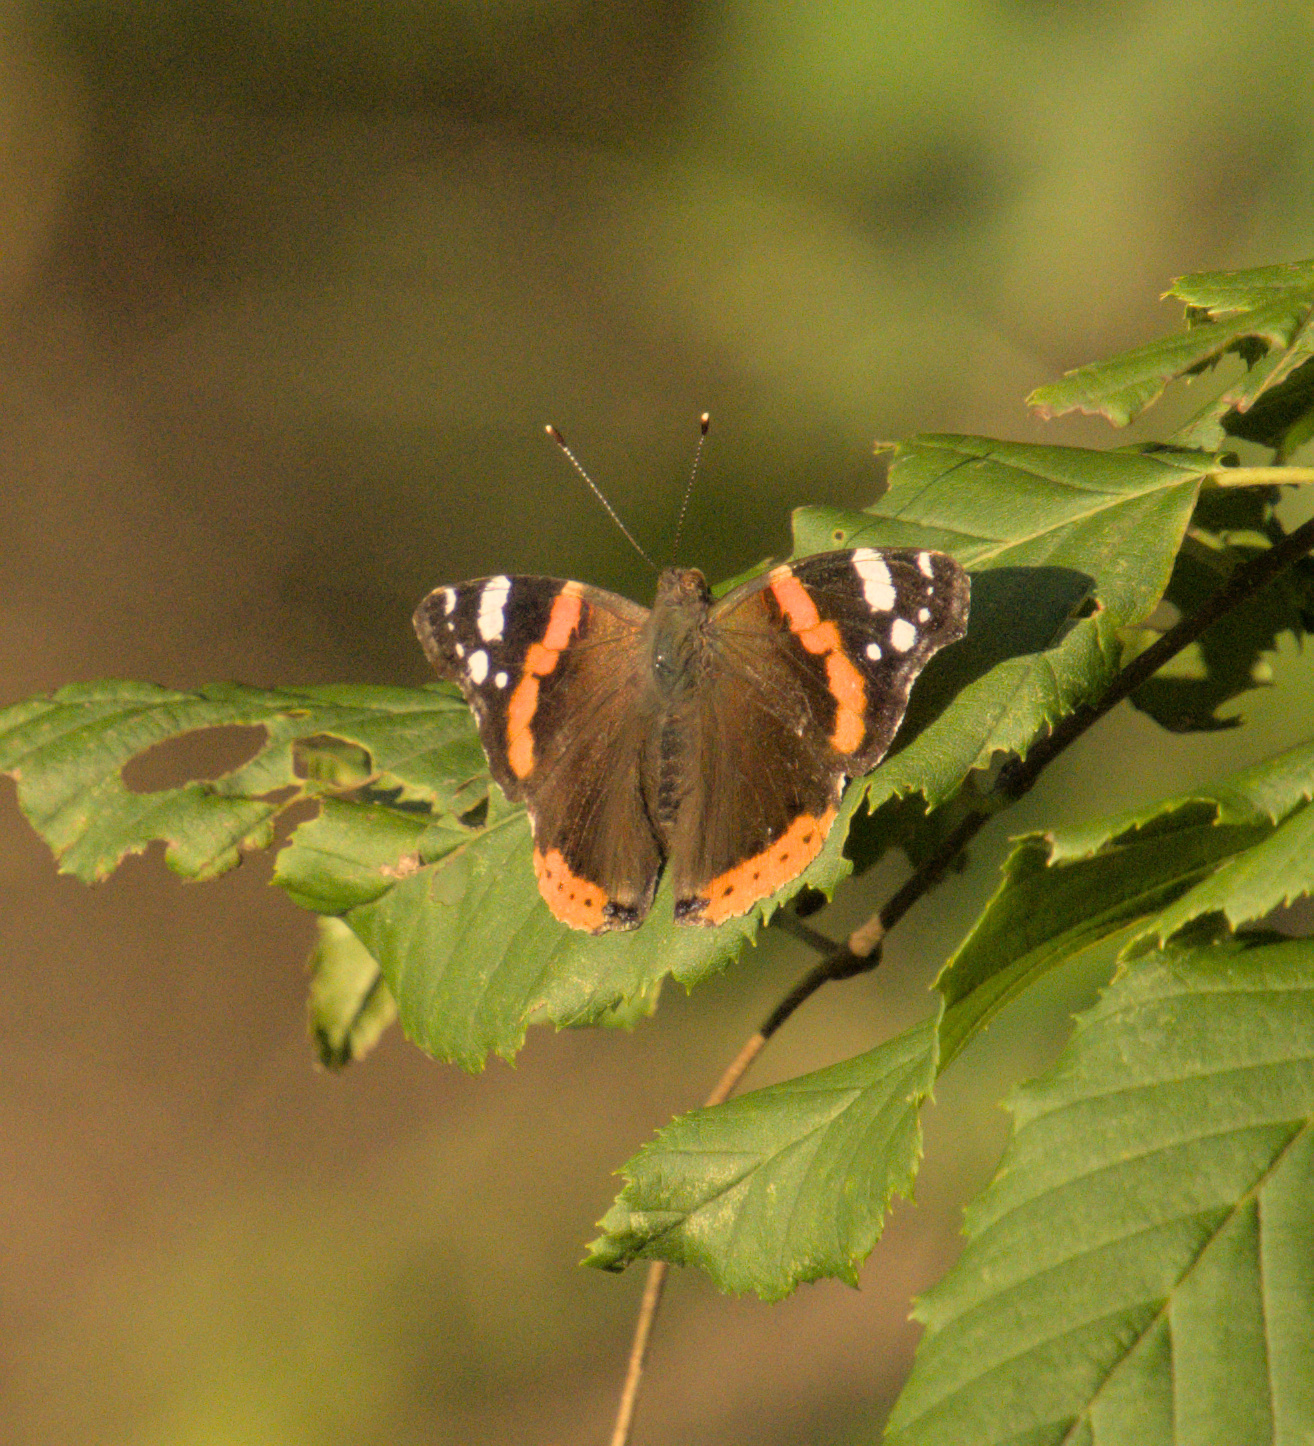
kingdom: Animalia
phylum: Arthropoda
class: Insecta
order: Lepidoptera
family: Nymphalidae
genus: Vanessa
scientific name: Vanessa atalanta
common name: Red admiral
